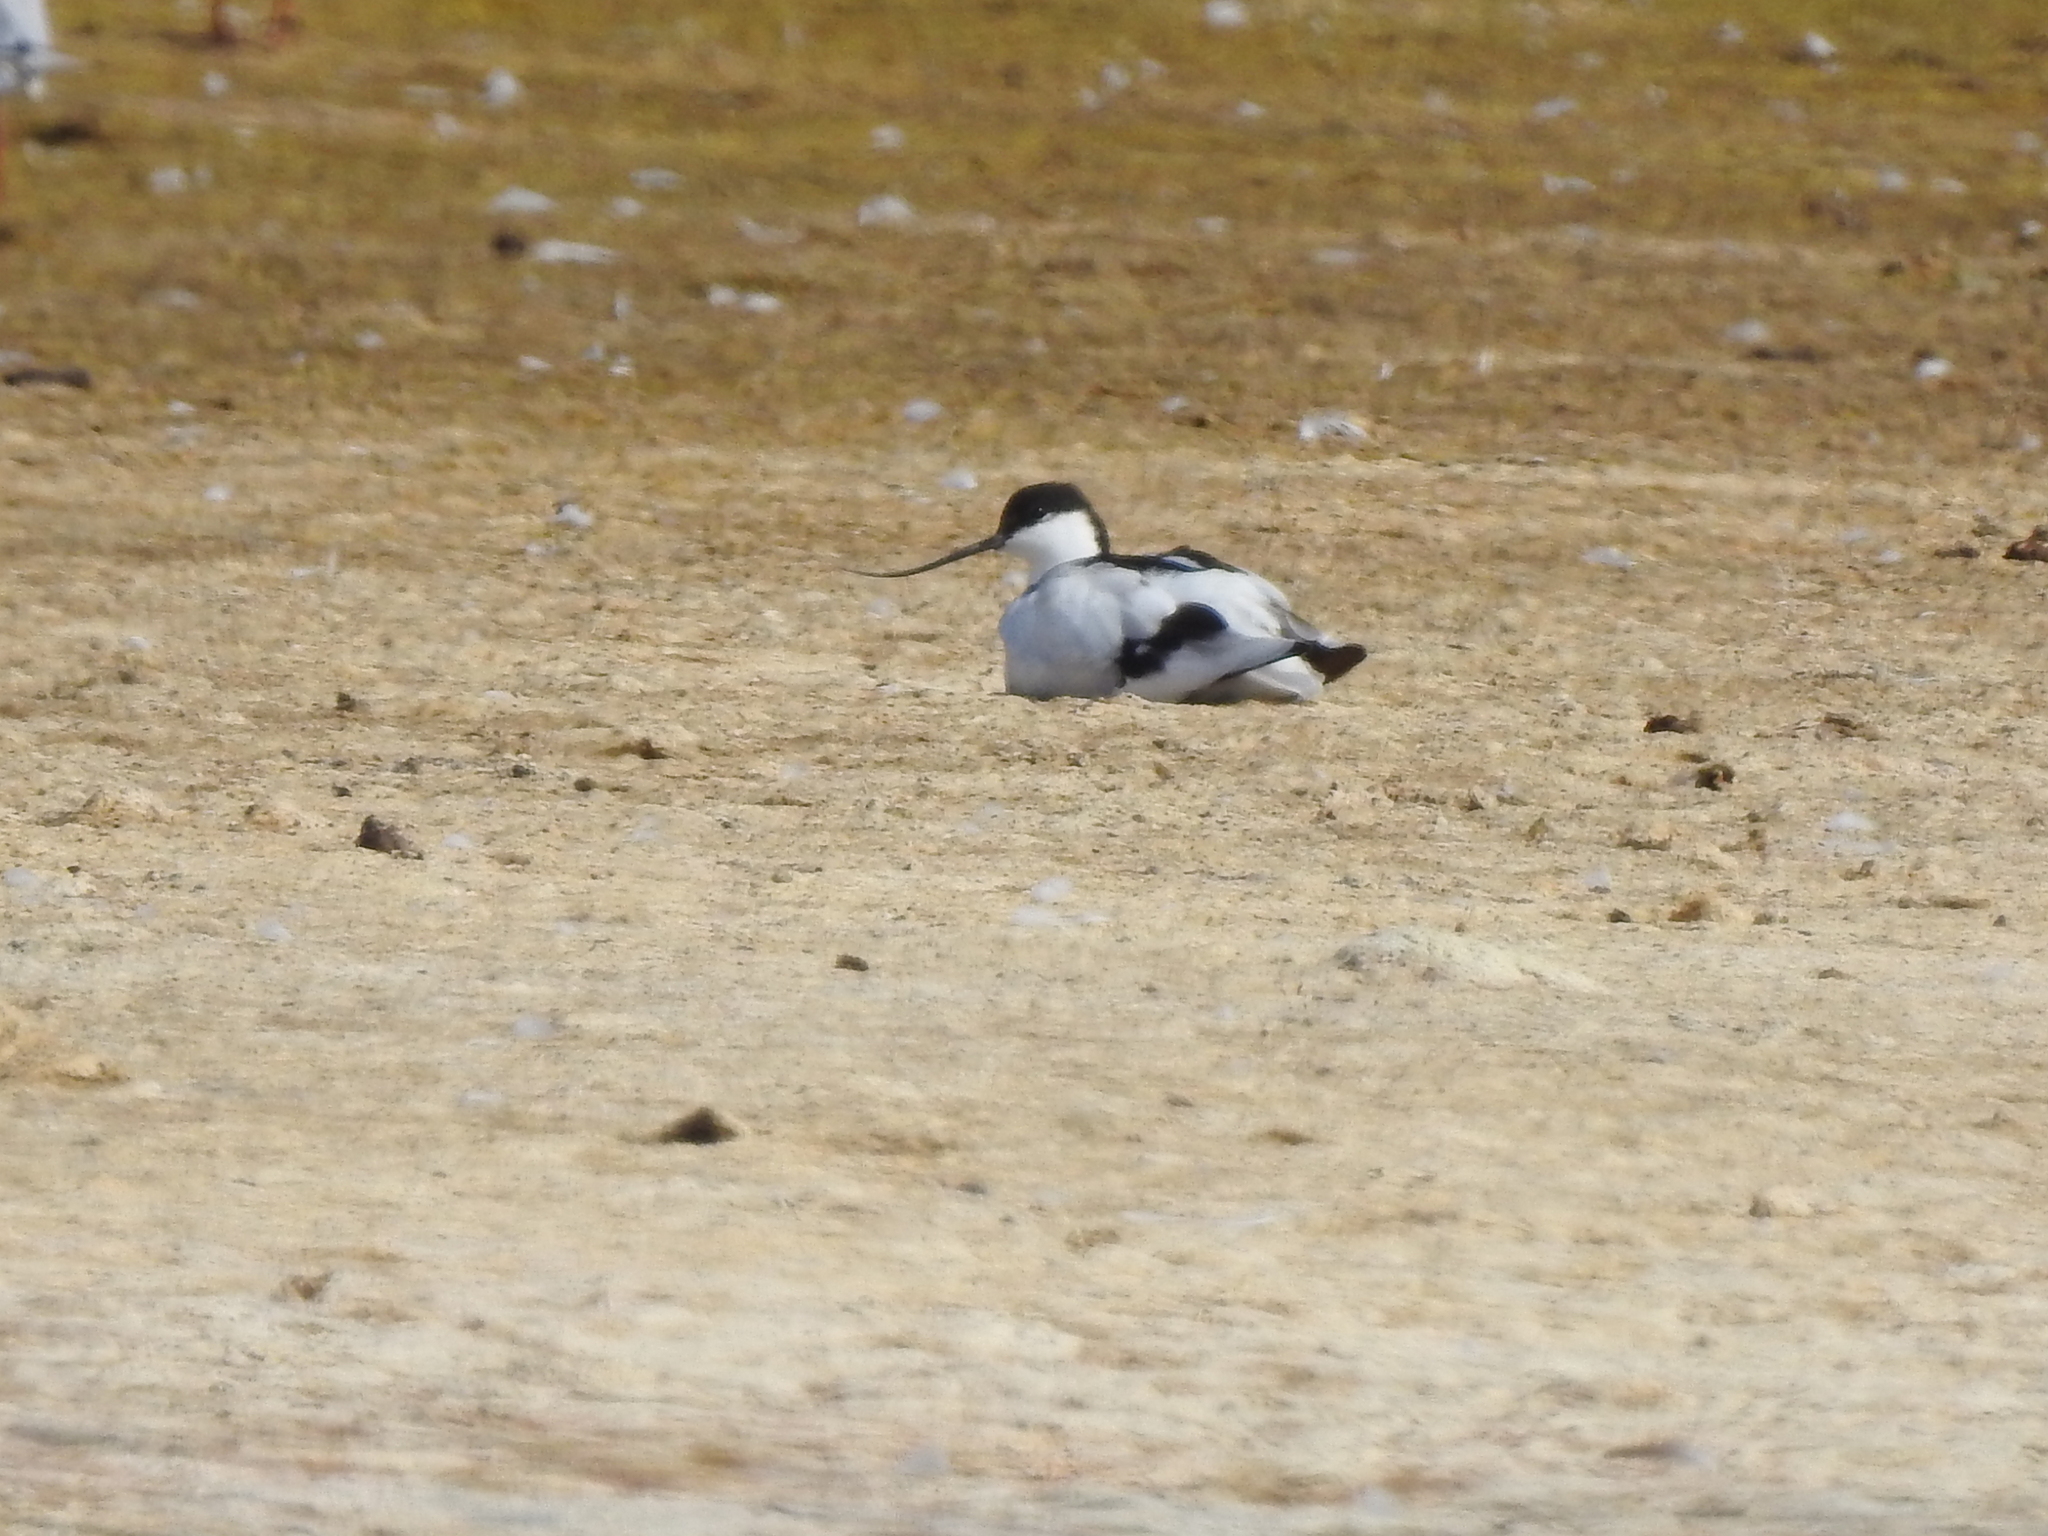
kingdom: Animalia
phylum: Chordata
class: Aves
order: Charadriiformes
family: Recurvirostridae
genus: Recurvirostra
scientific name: Recurvirostra avosetta
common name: Pied avocet
